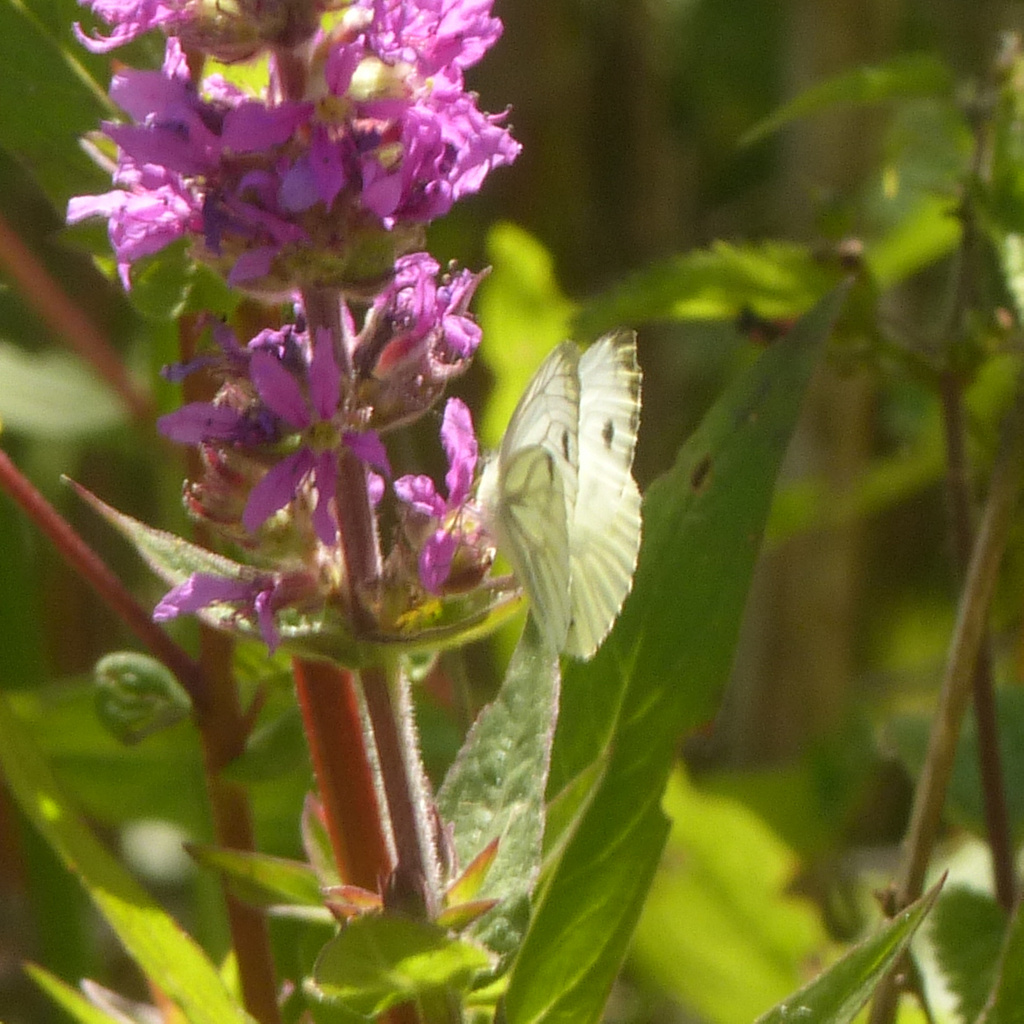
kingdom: Animalia
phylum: Arthropoda
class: Insecta
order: Lepidoptera
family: Pieridae
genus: Pieris
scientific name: Pieris napi
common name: Green-veined white
